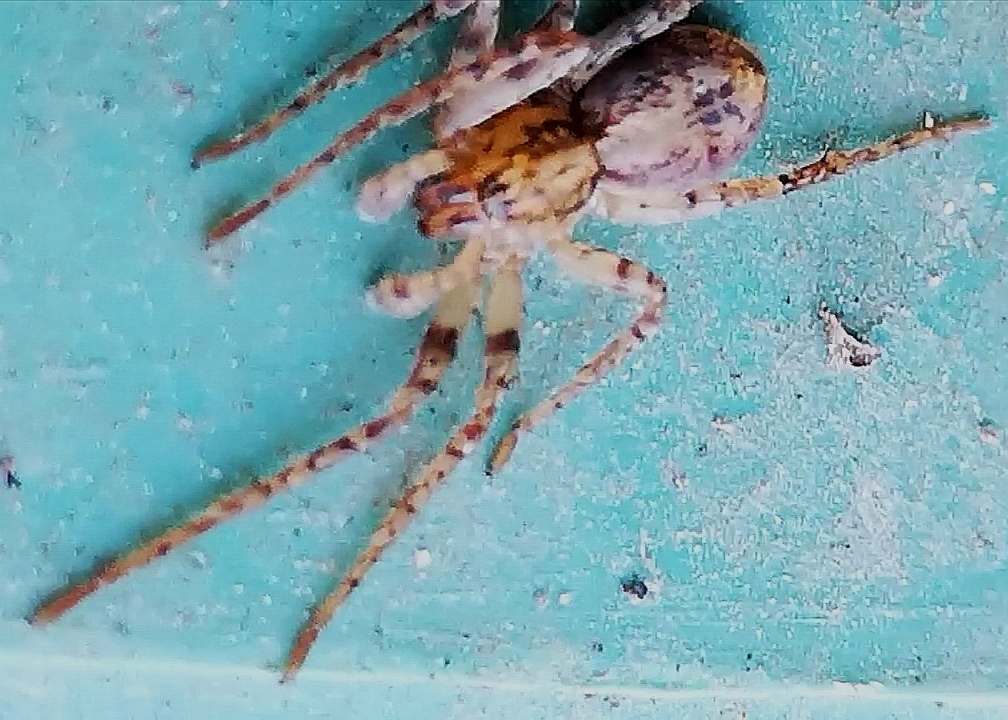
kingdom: Animalia
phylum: Arthropoda
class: Arachnida
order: Araneae
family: Anyphaenidae
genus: Anyphaena
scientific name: Anyphaena accentuata
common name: Buzzing spider
